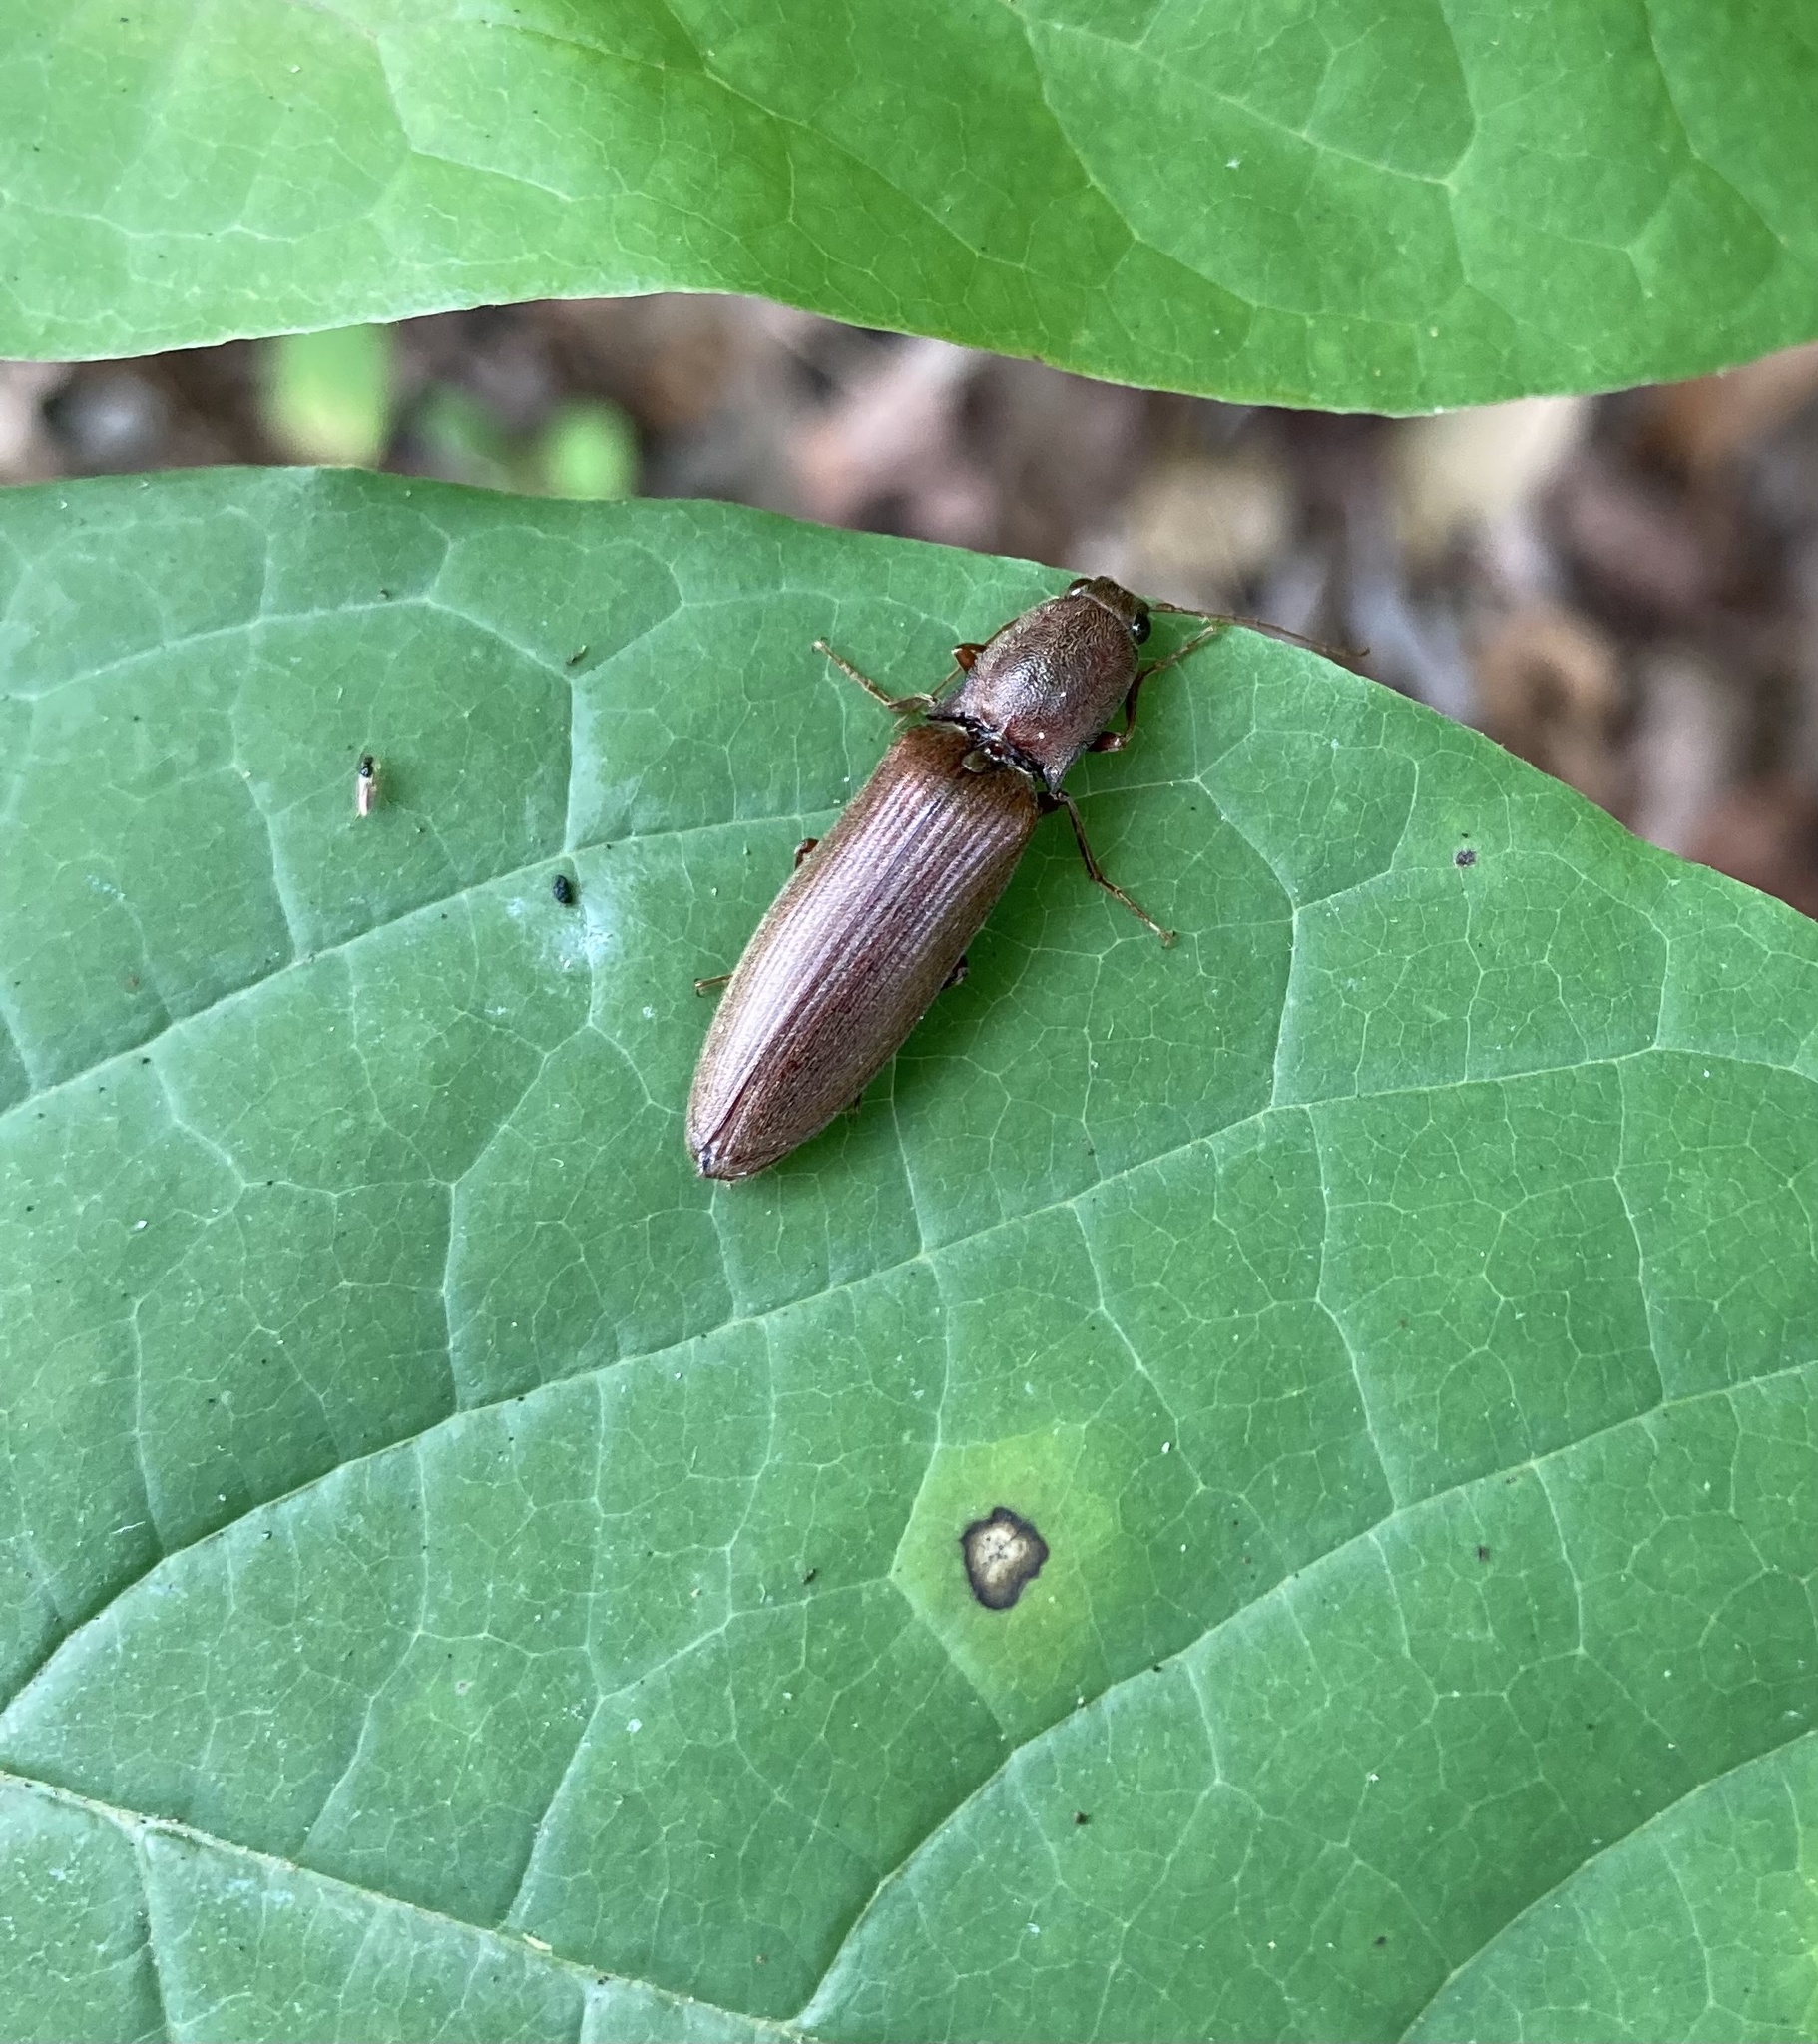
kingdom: Animalia
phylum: Arthropoda
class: Insecta
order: Coleoptera
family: Elateridae
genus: Proludius
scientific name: Proludius pyrros
